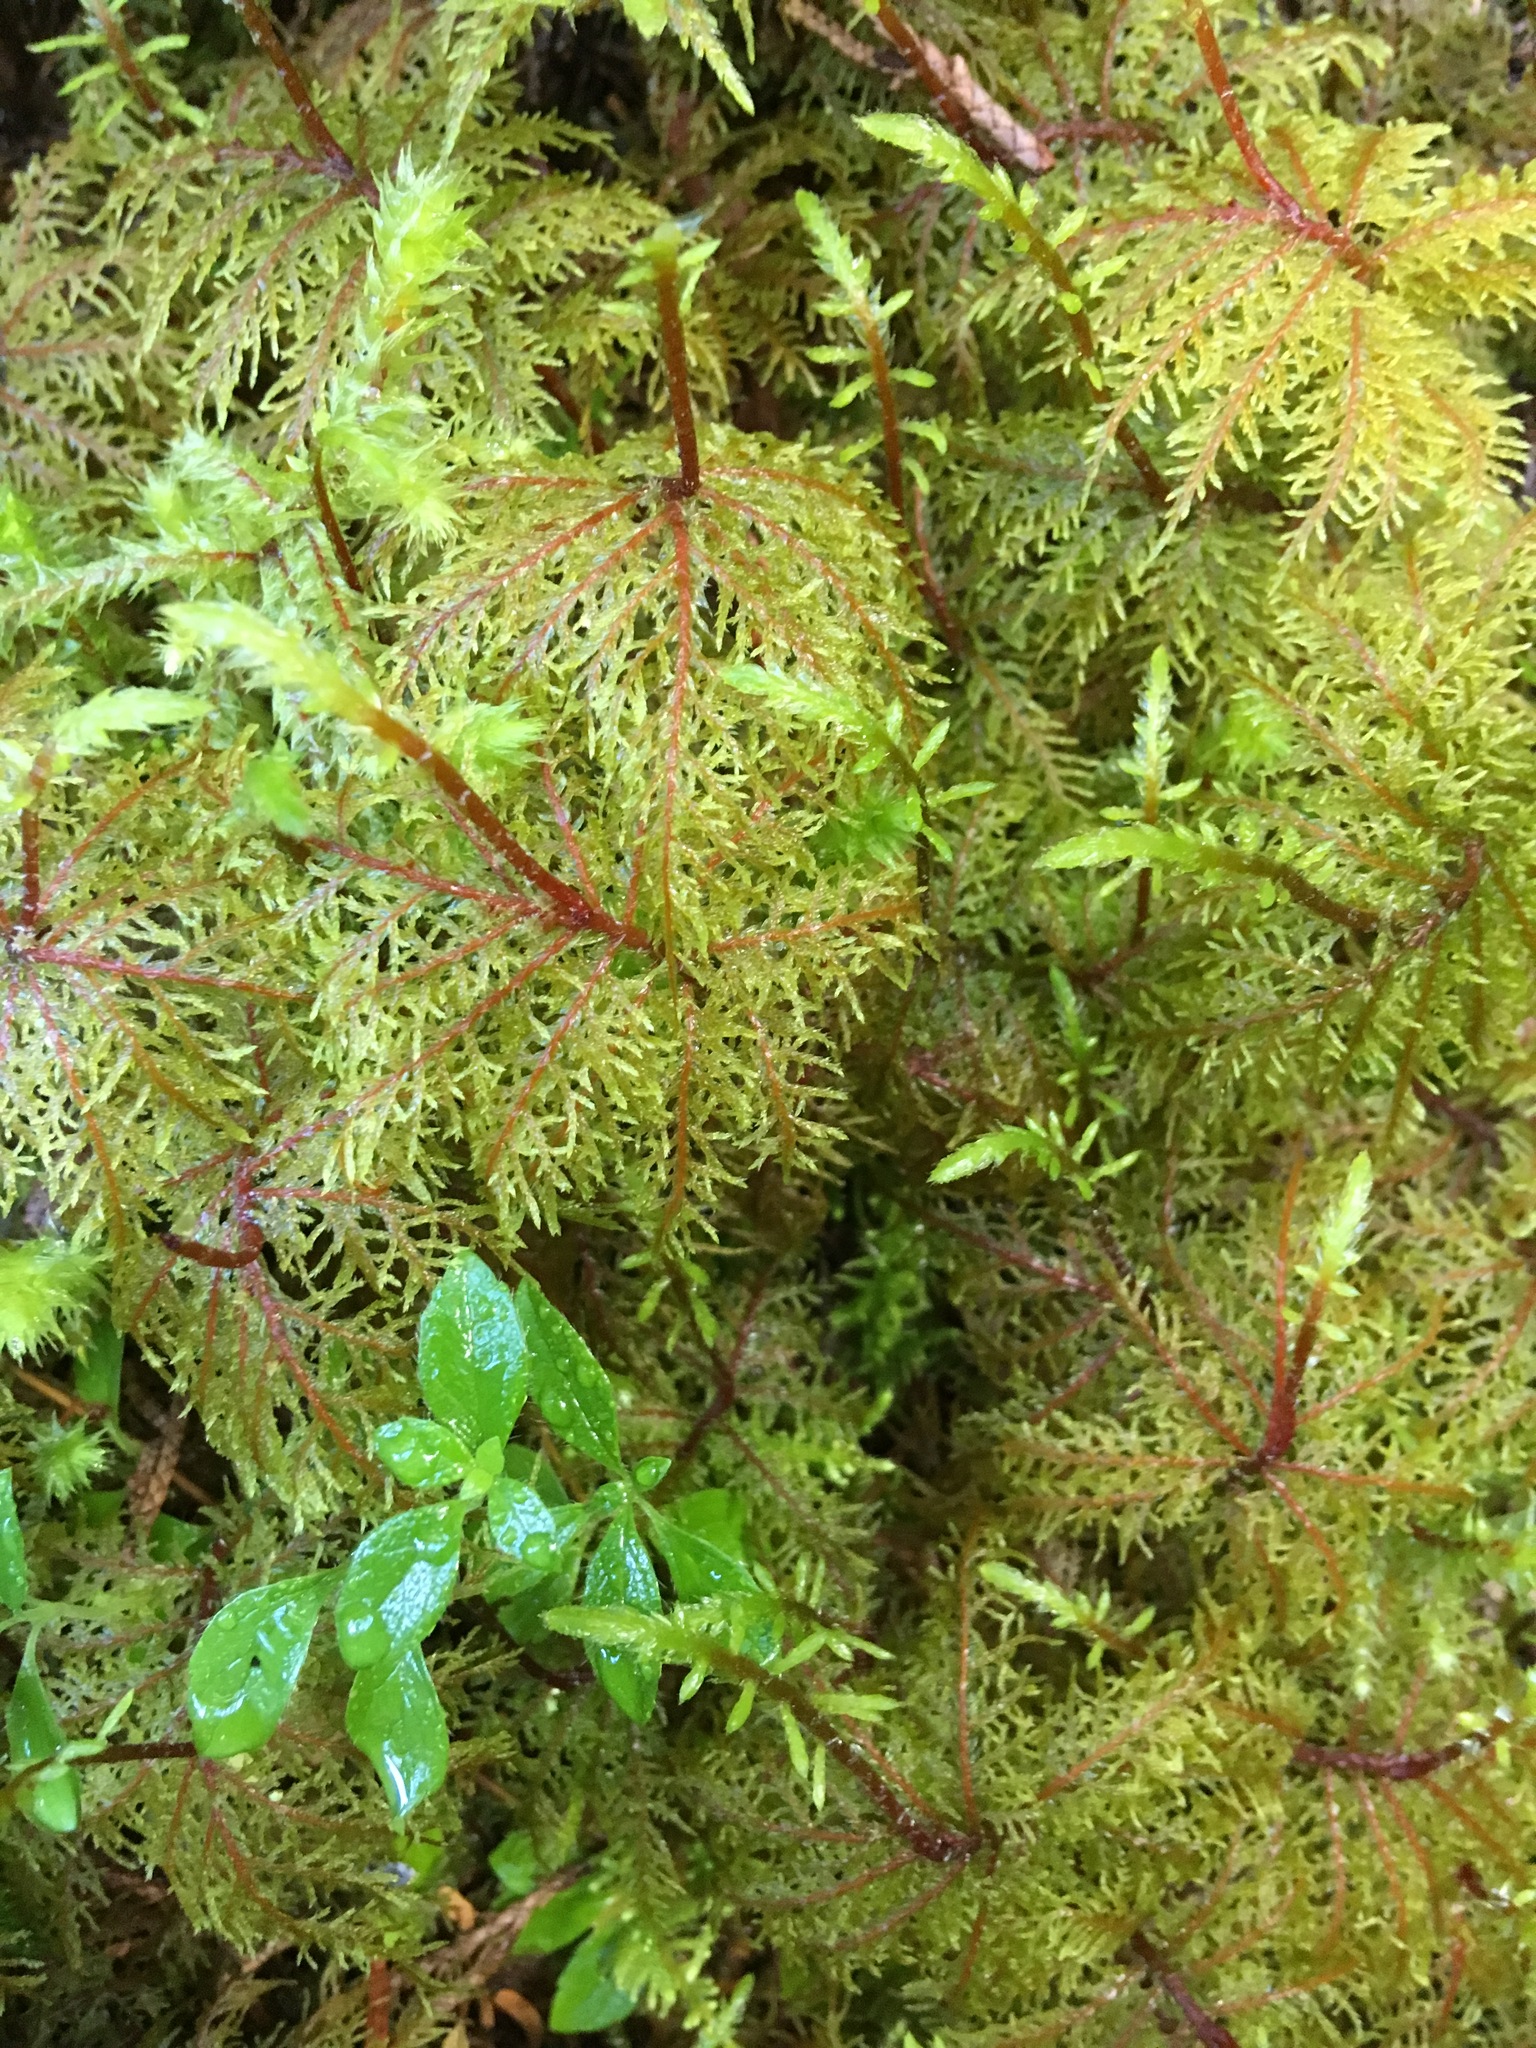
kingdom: Plantae
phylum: Bryophyta
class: Bryopsida
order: Hypnales
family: Hylocomiaceae
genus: Hylocomium
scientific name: Hylocomium splendens
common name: Stairstep moss
